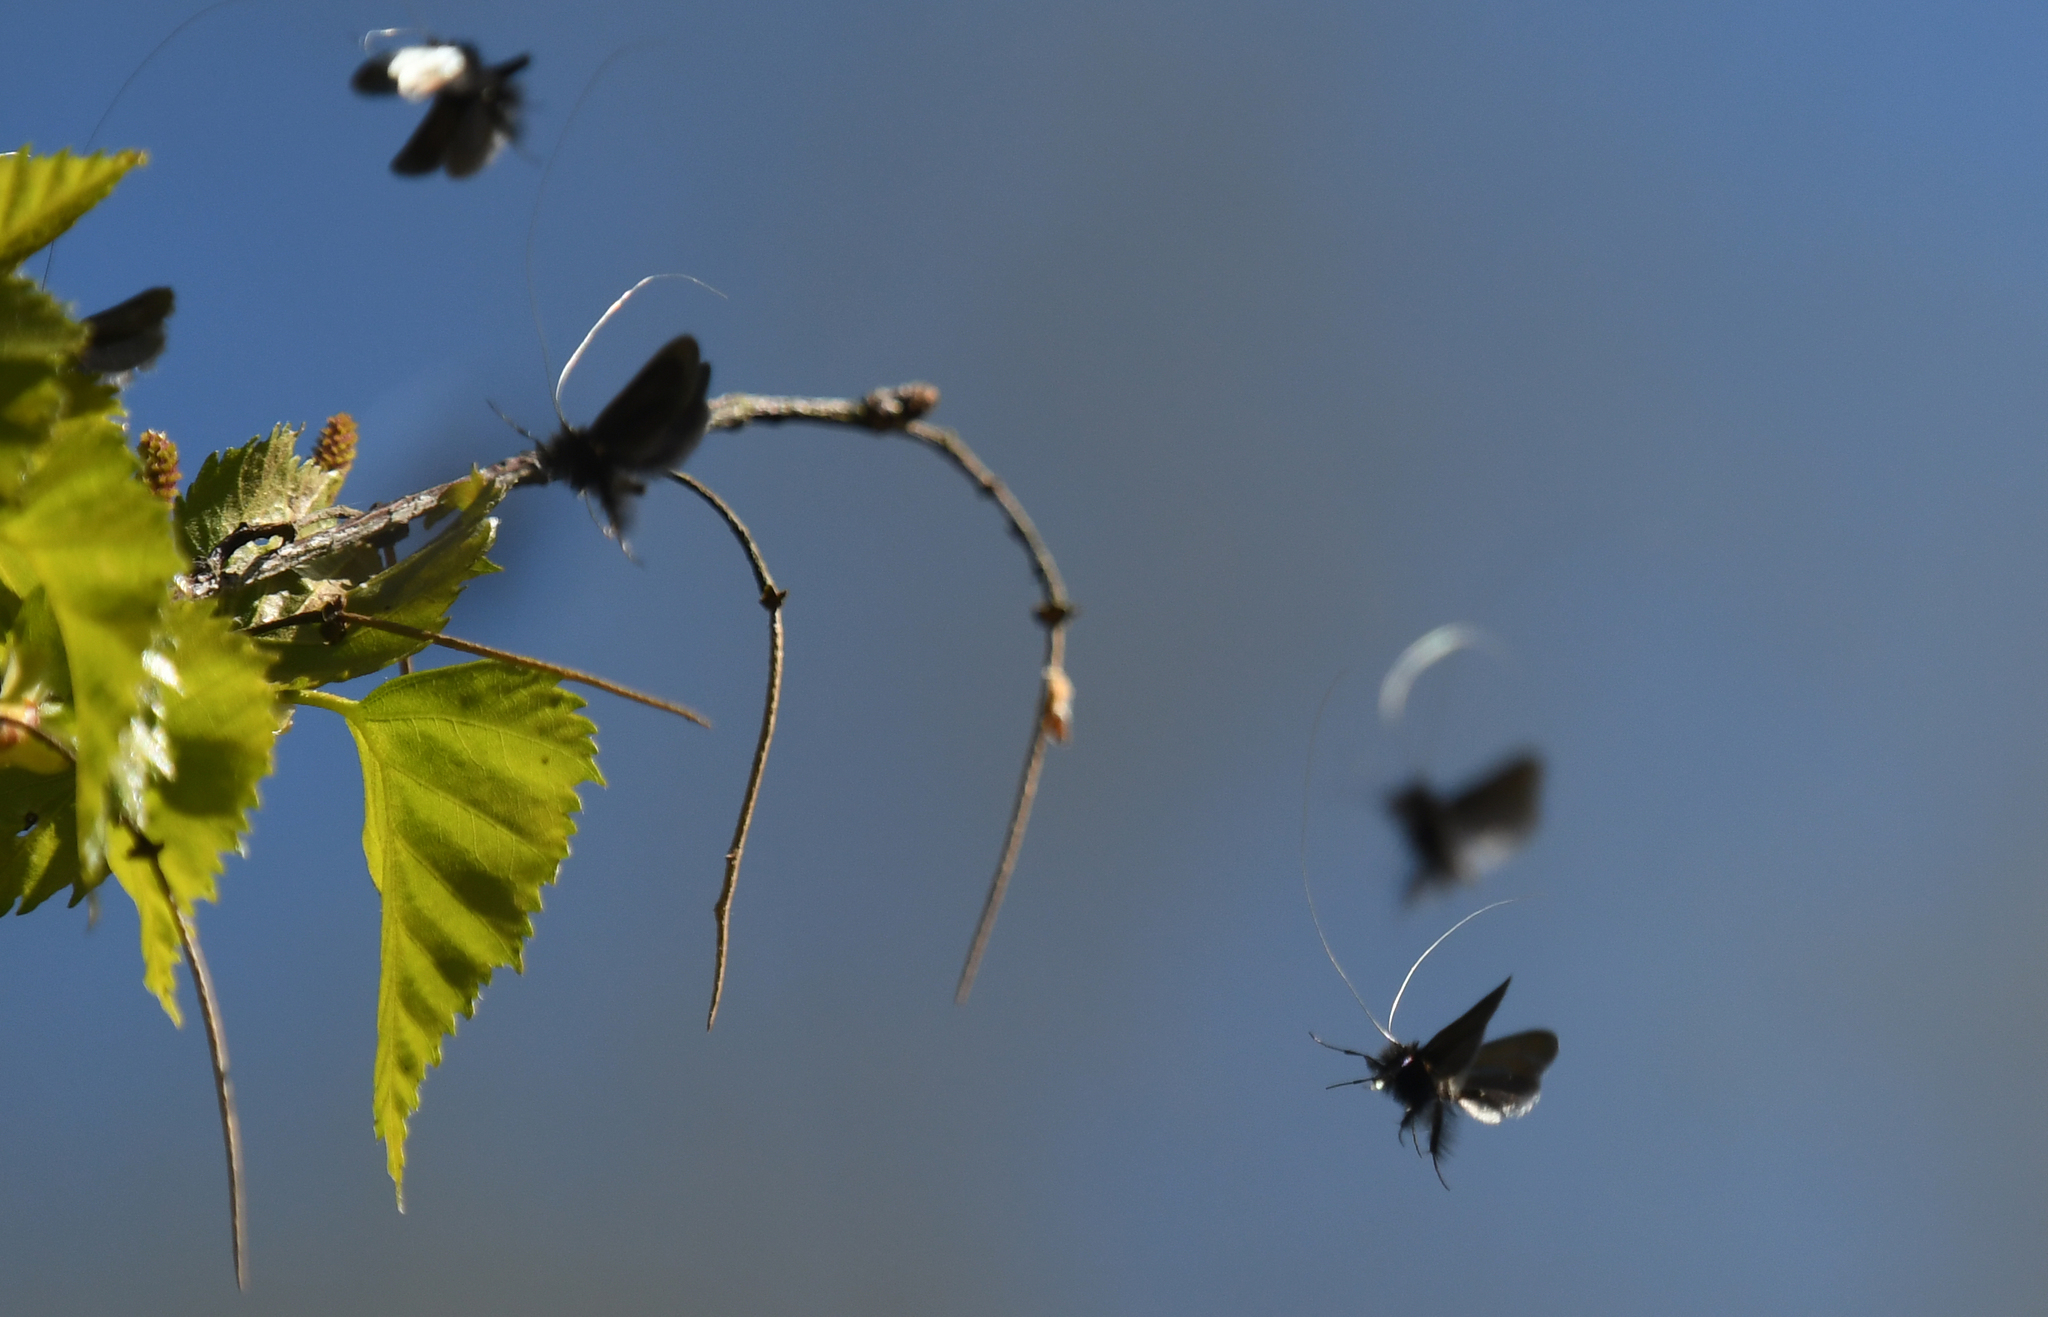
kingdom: Animalia
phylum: Arthropoda
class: Insecta
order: Lepidoptera
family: Adelidae
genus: Adela
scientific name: Adela viridella
